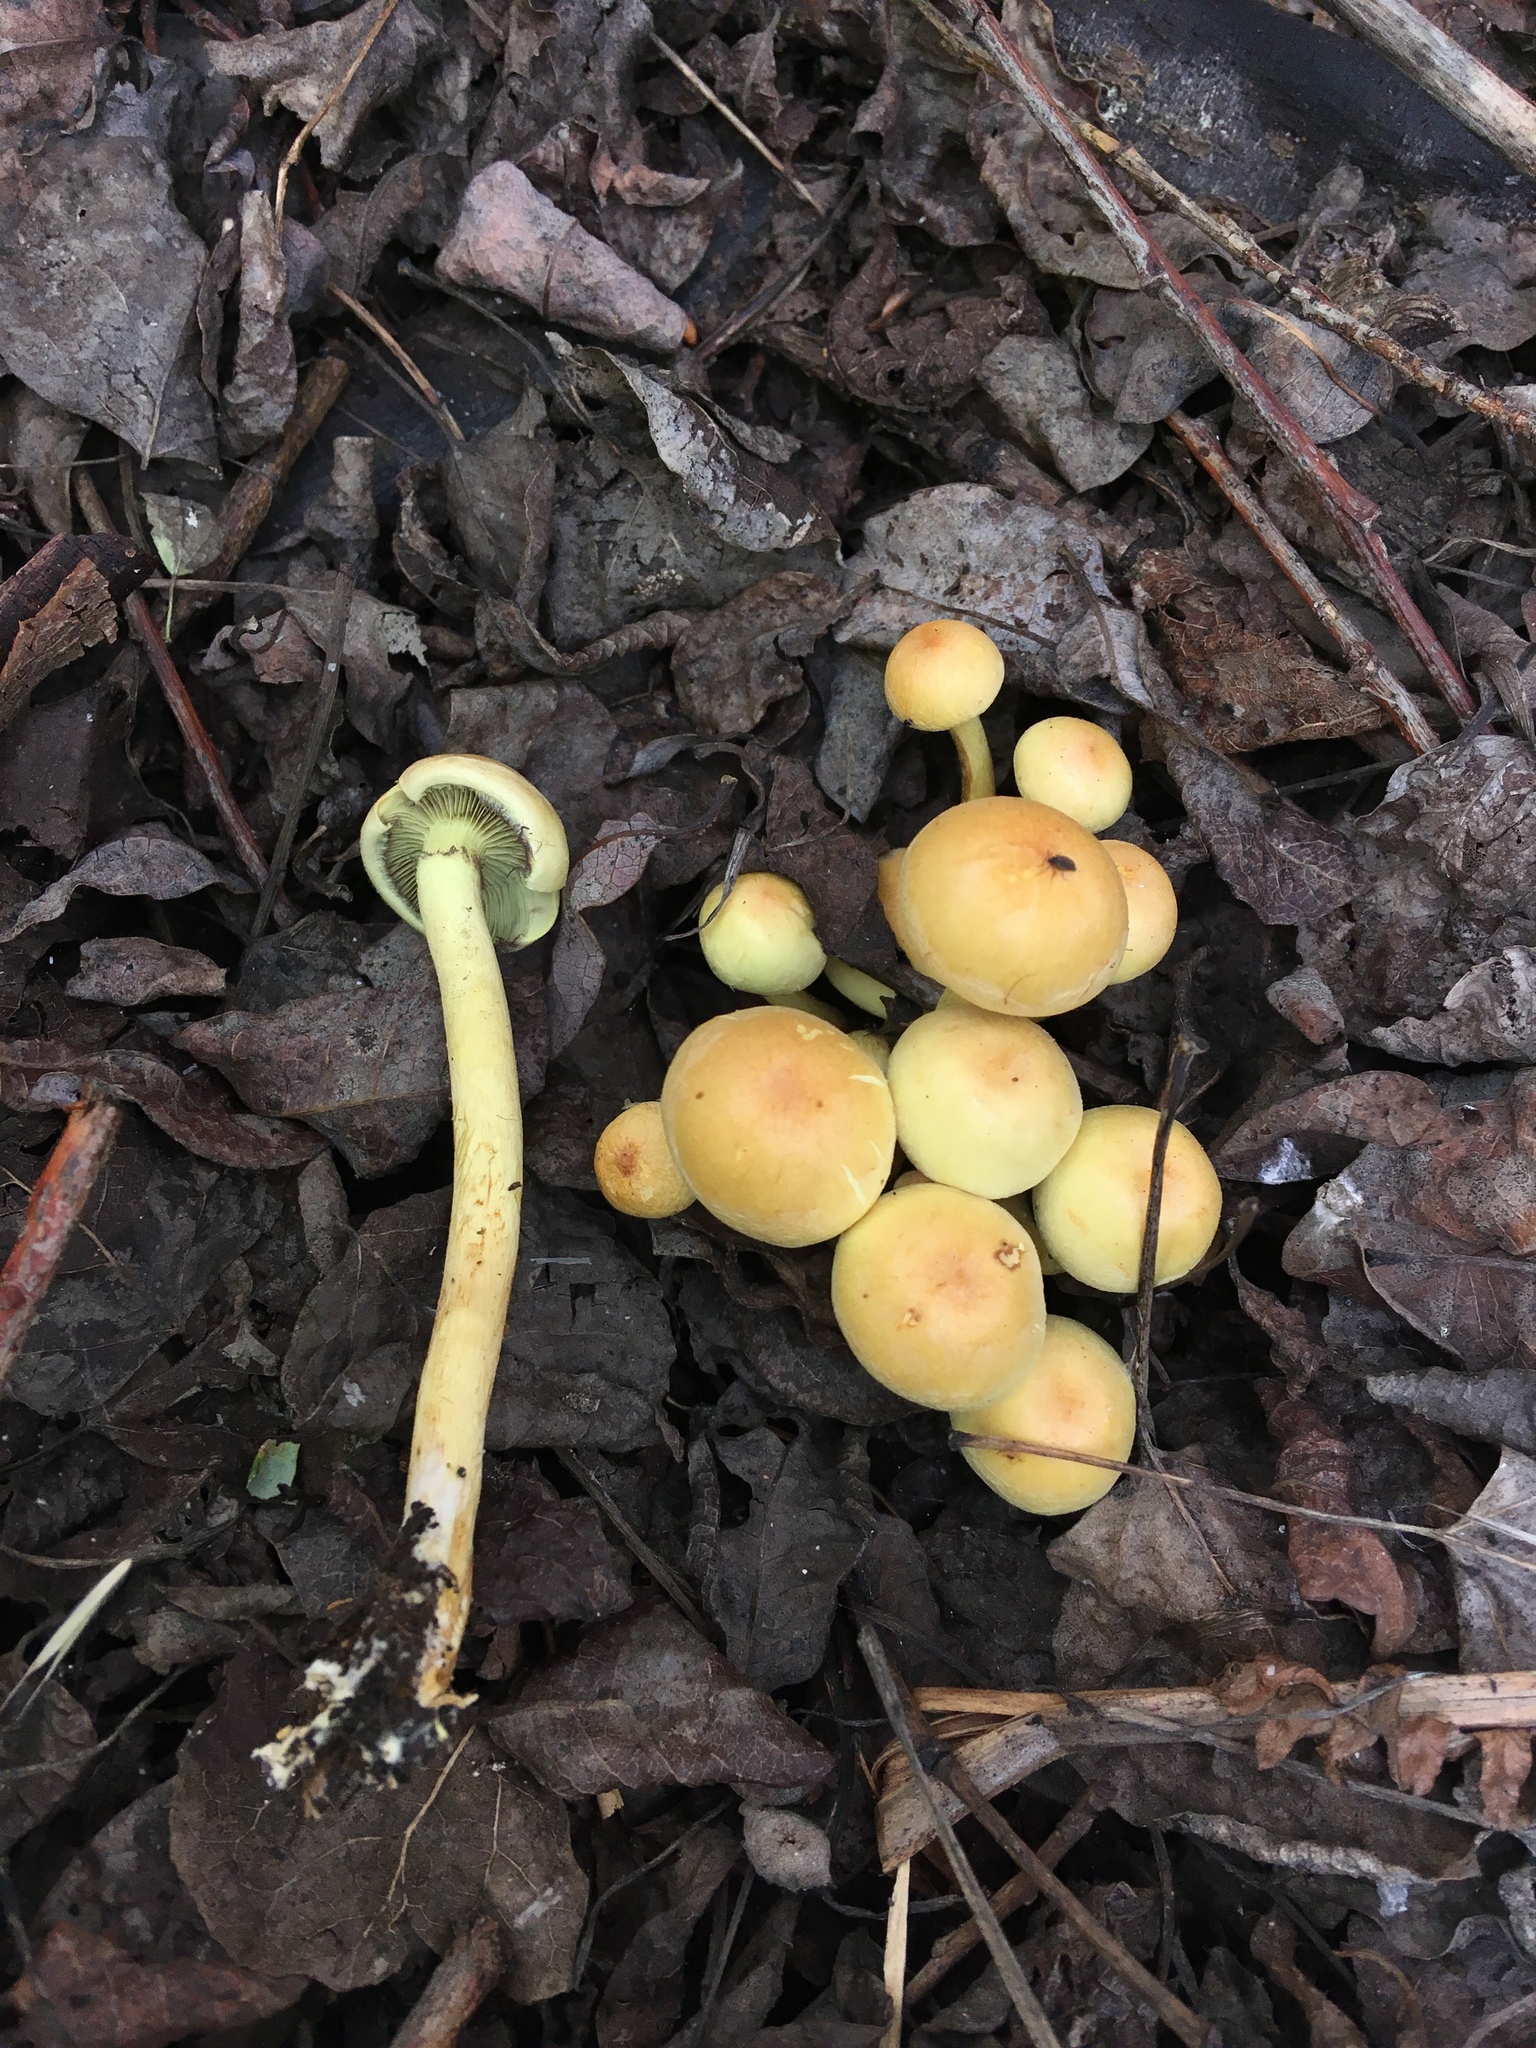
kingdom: Fungi
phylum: Basidiomycota
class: Agaricomycetes
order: Agaricales
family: Strophariaceae
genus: Hypholoma
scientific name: Hypholoma fasciculare
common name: Sulphur tuft
